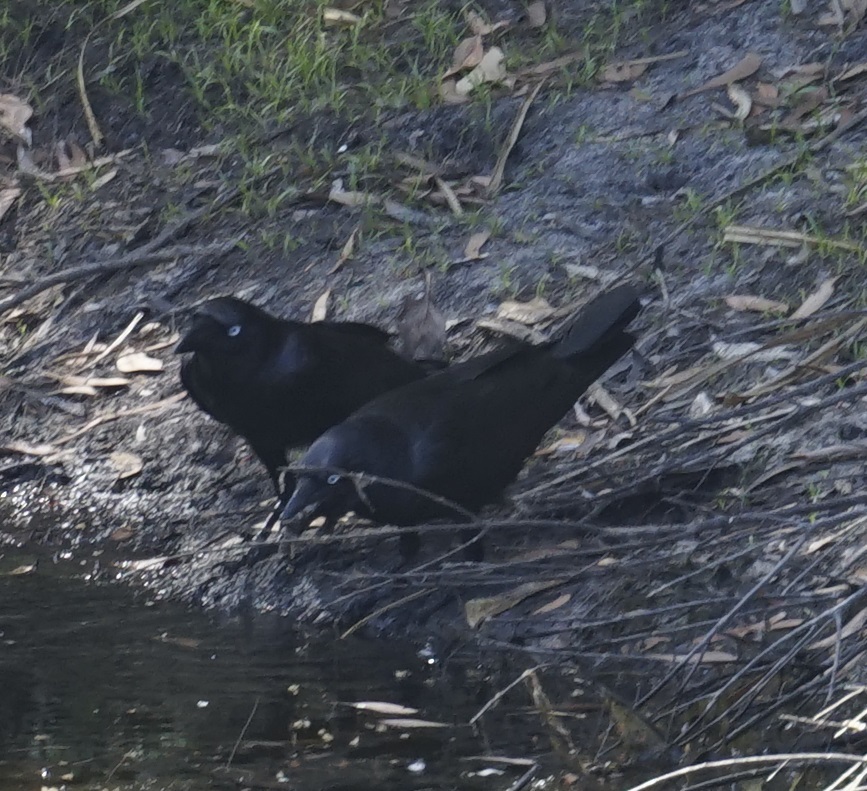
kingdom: Animalia
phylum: Chordata
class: Aves
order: Passeriformes
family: Corvidae
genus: Corvus
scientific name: Corvus orru
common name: Torresian crow
